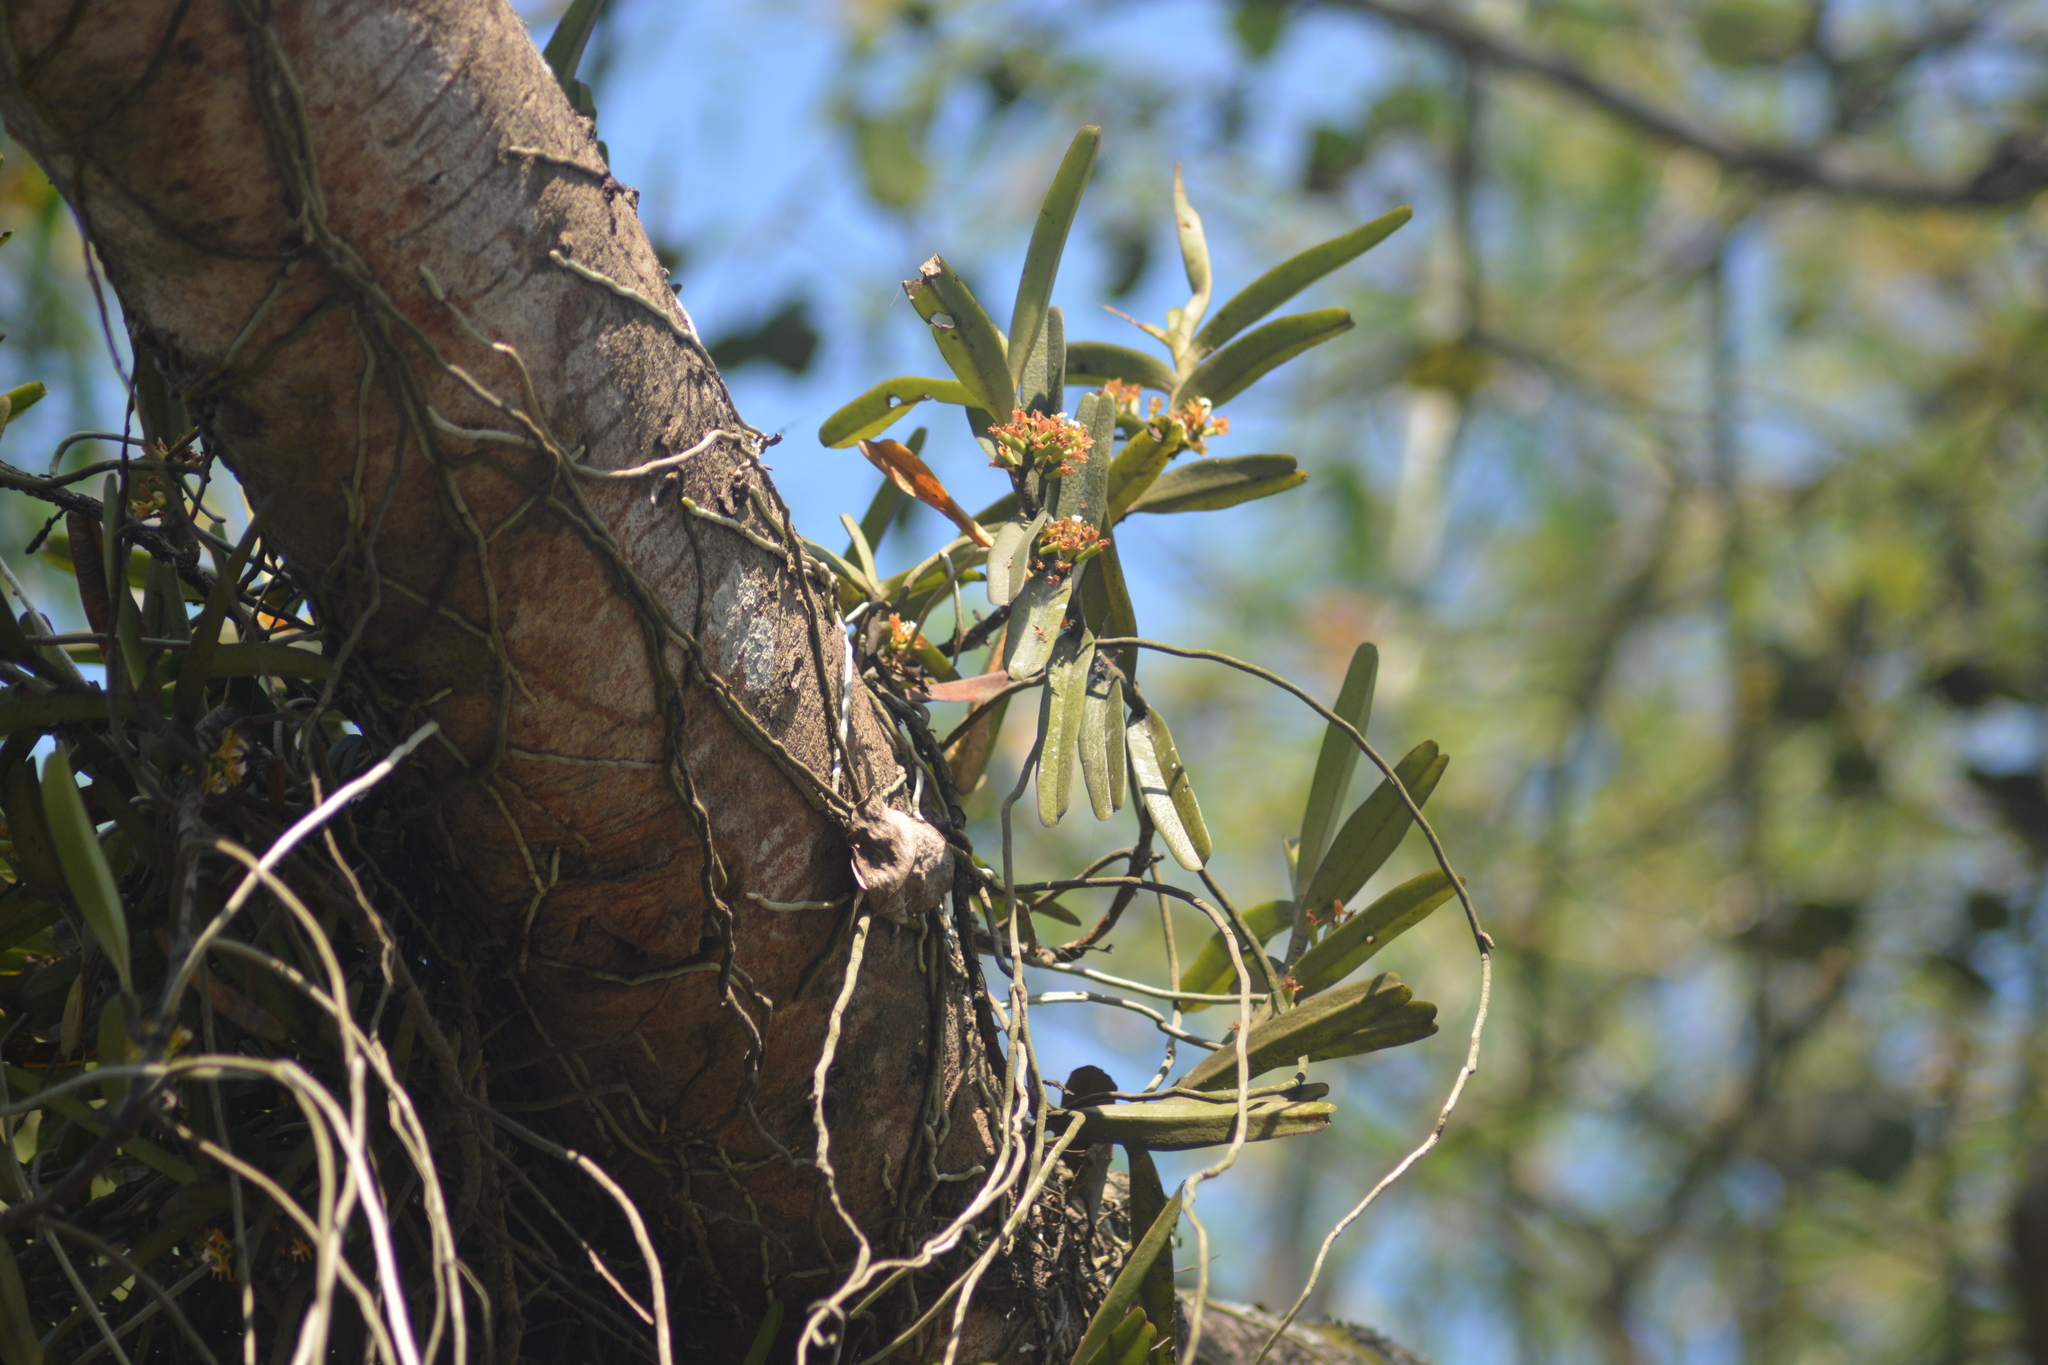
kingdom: Plantae
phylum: Tracheophyta
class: Liliopsida
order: Asparagales
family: Orchidaceae
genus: Acampe
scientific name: Acampe praemorsa
